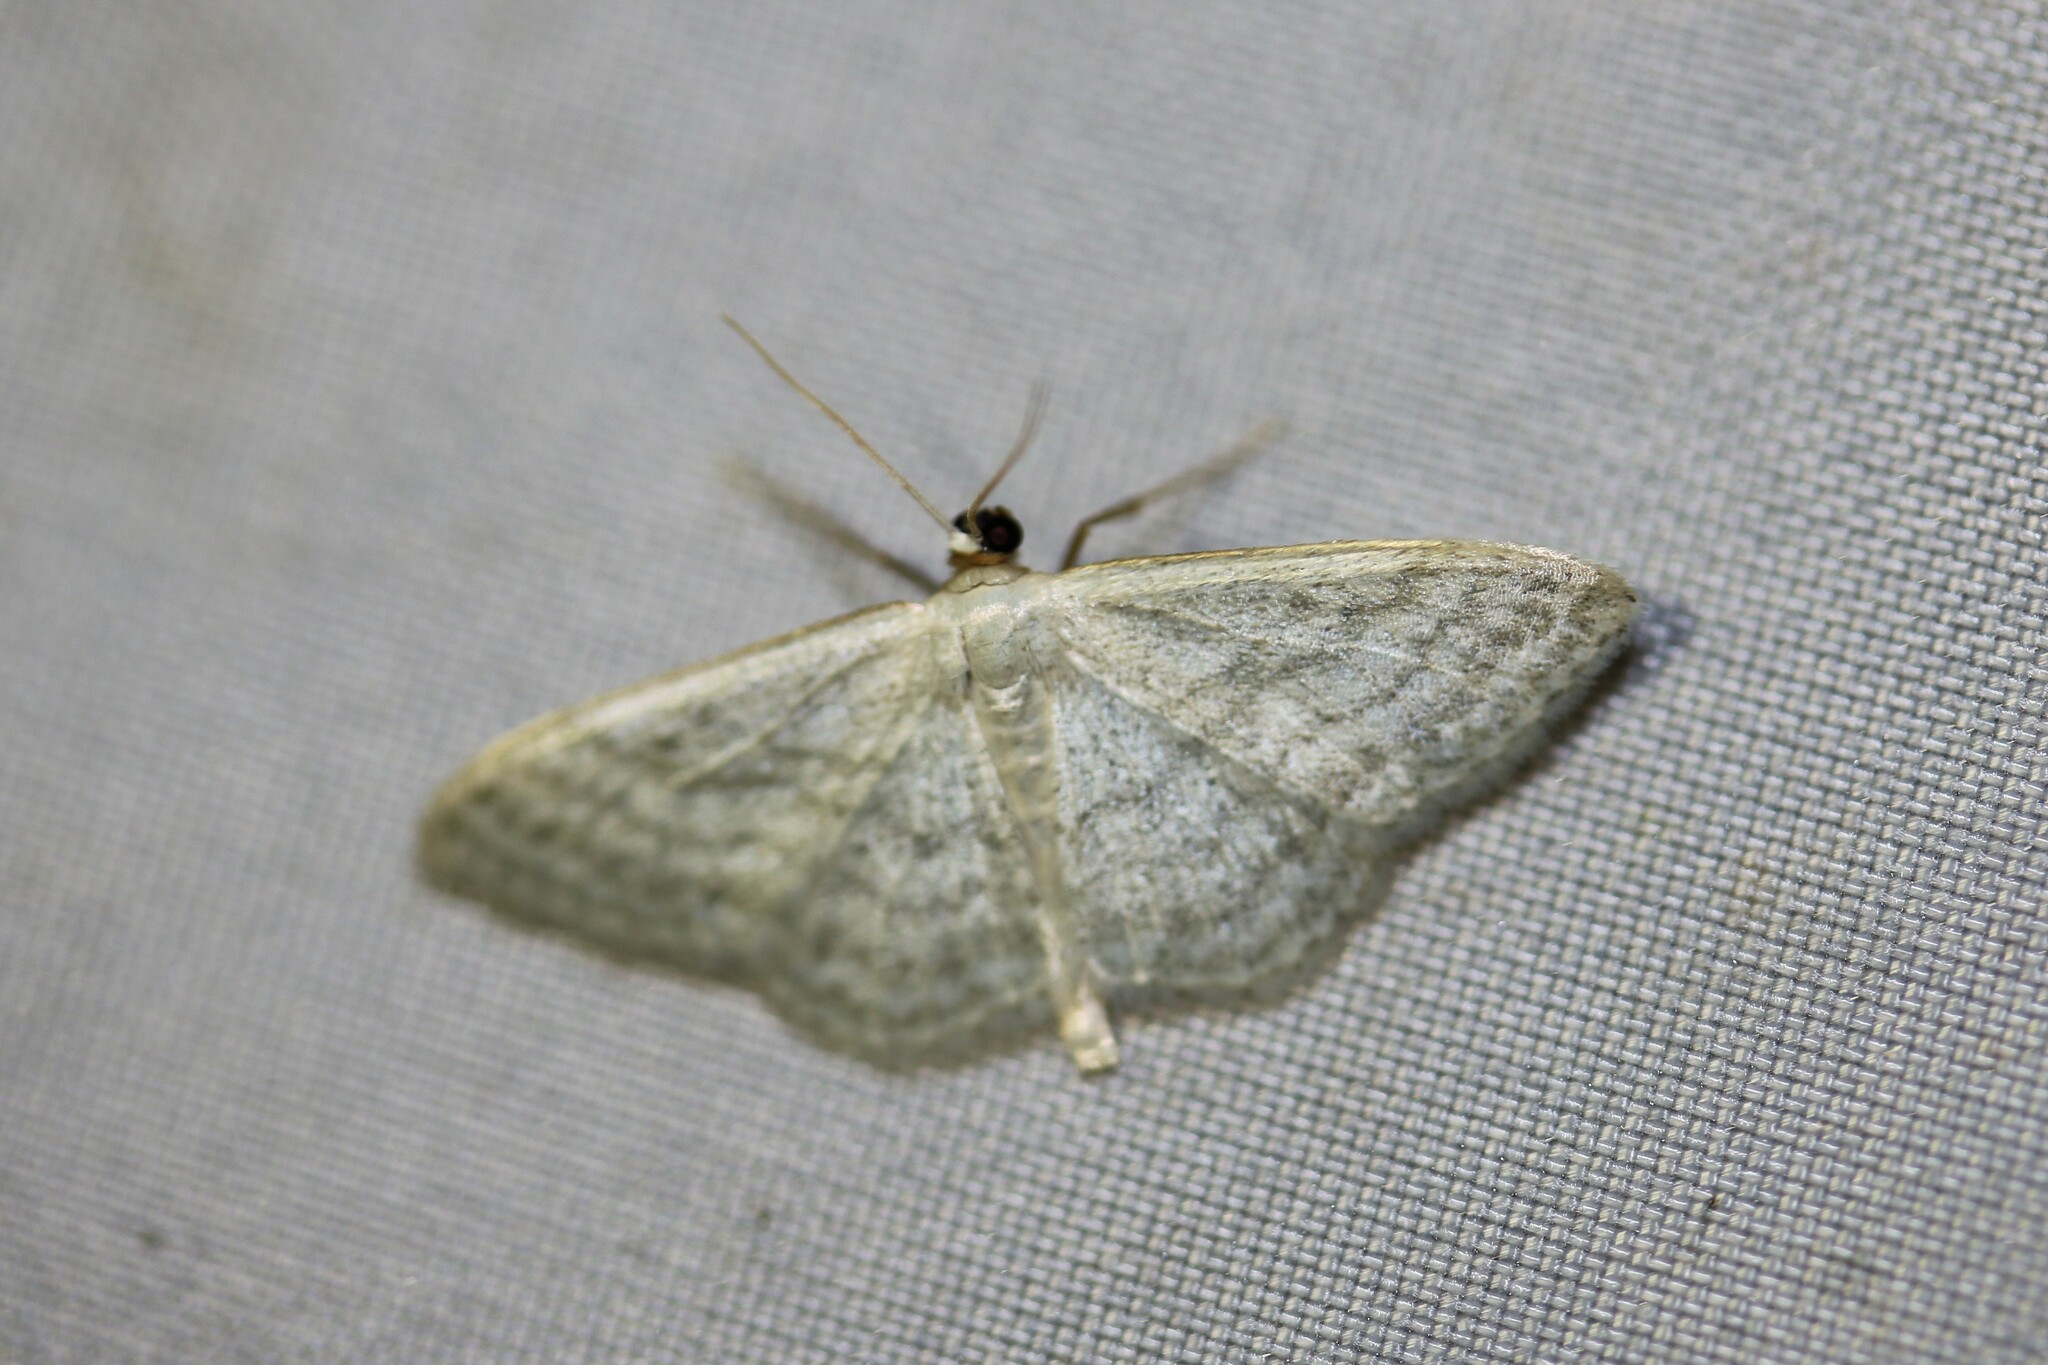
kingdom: Animalia
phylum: Arthropoda
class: Insecta
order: Lepidoptera
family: Geometridae
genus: Idaea
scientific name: Idaea subsericeata
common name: Satin wave
